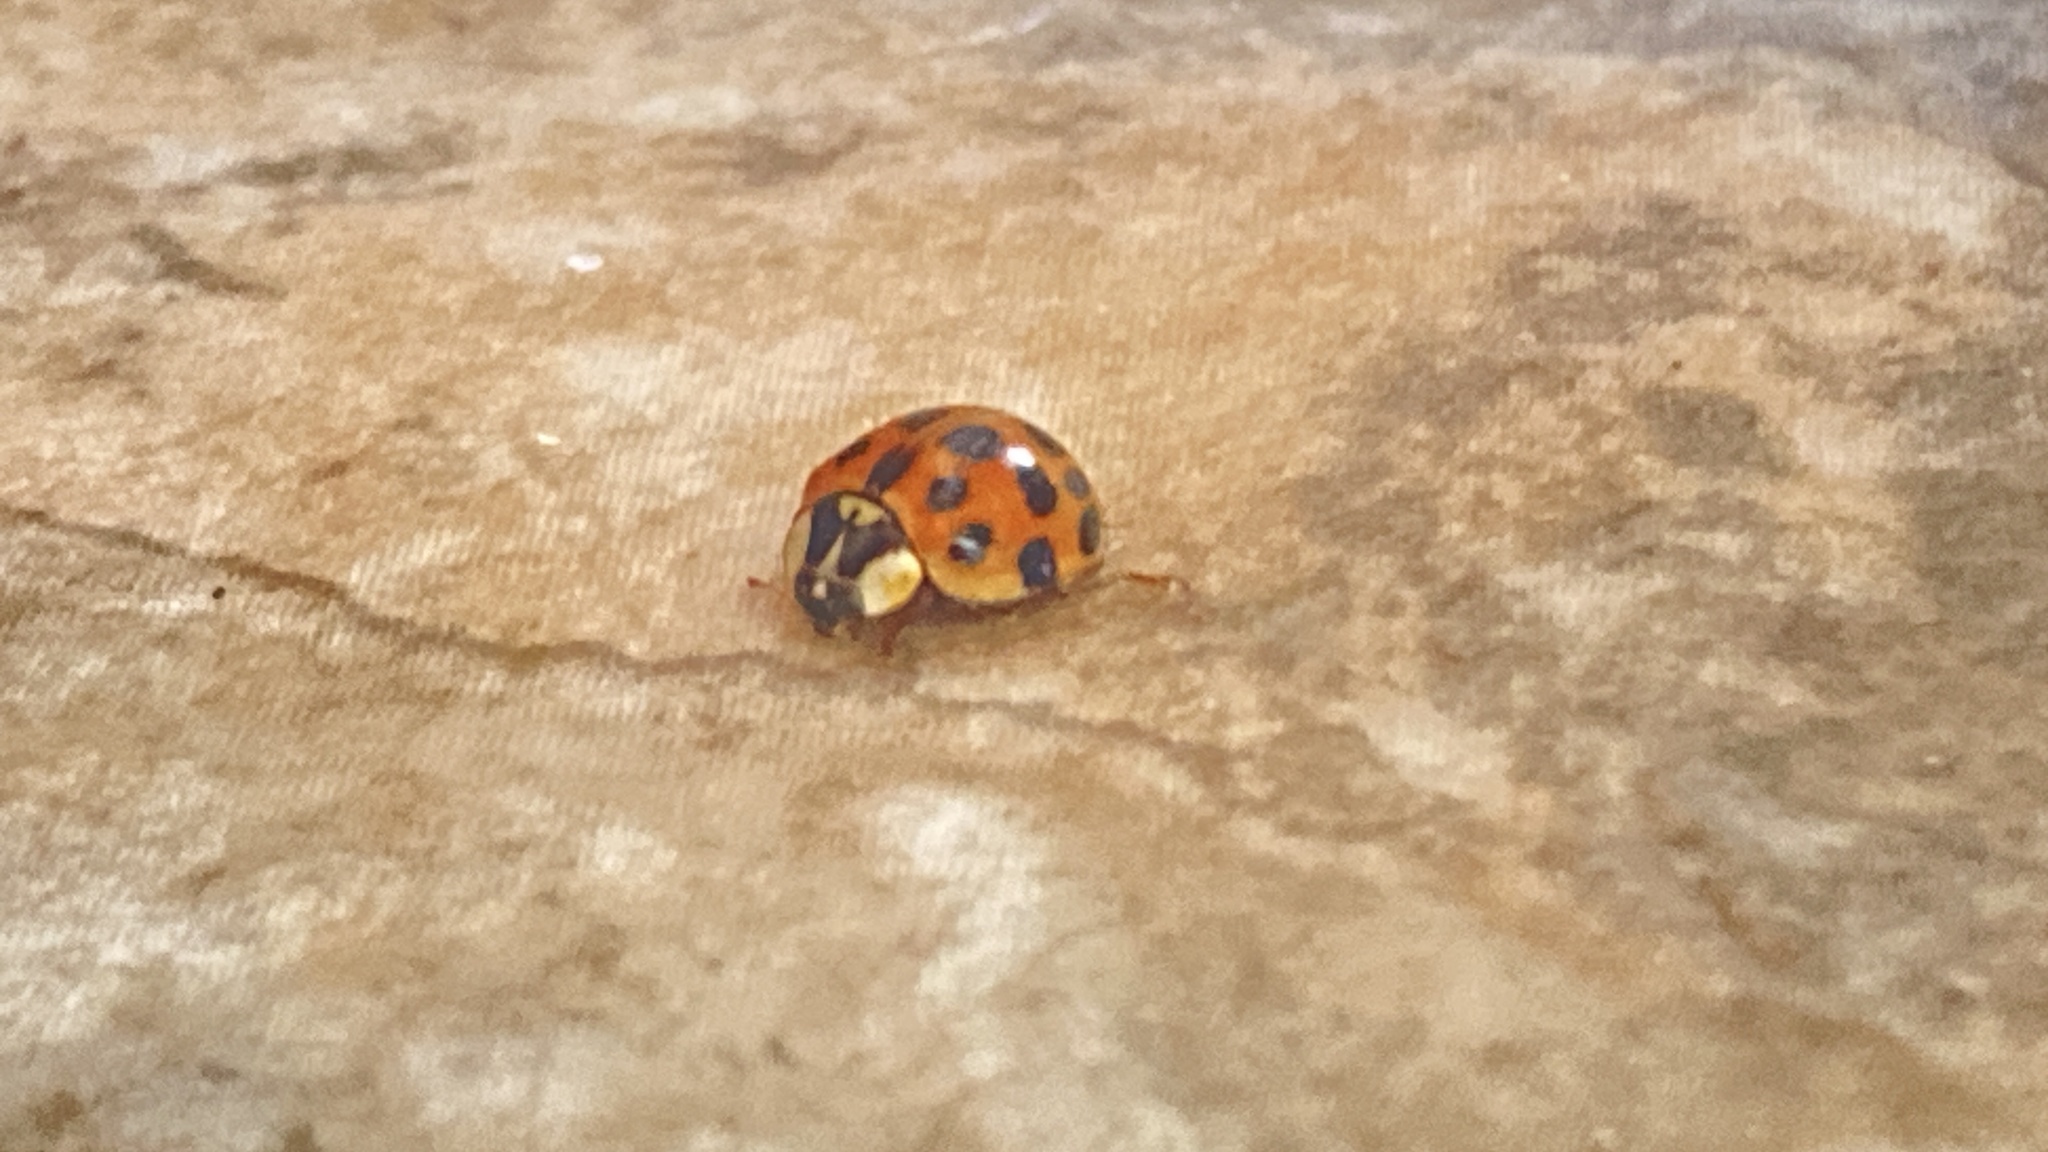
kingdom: Animalia
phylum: Arthropoda
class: Insecta
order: Coleoptera
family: Coccinellidae
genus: Harmonia
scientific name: Harmonia axyridis
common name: Harlequin ladybird
